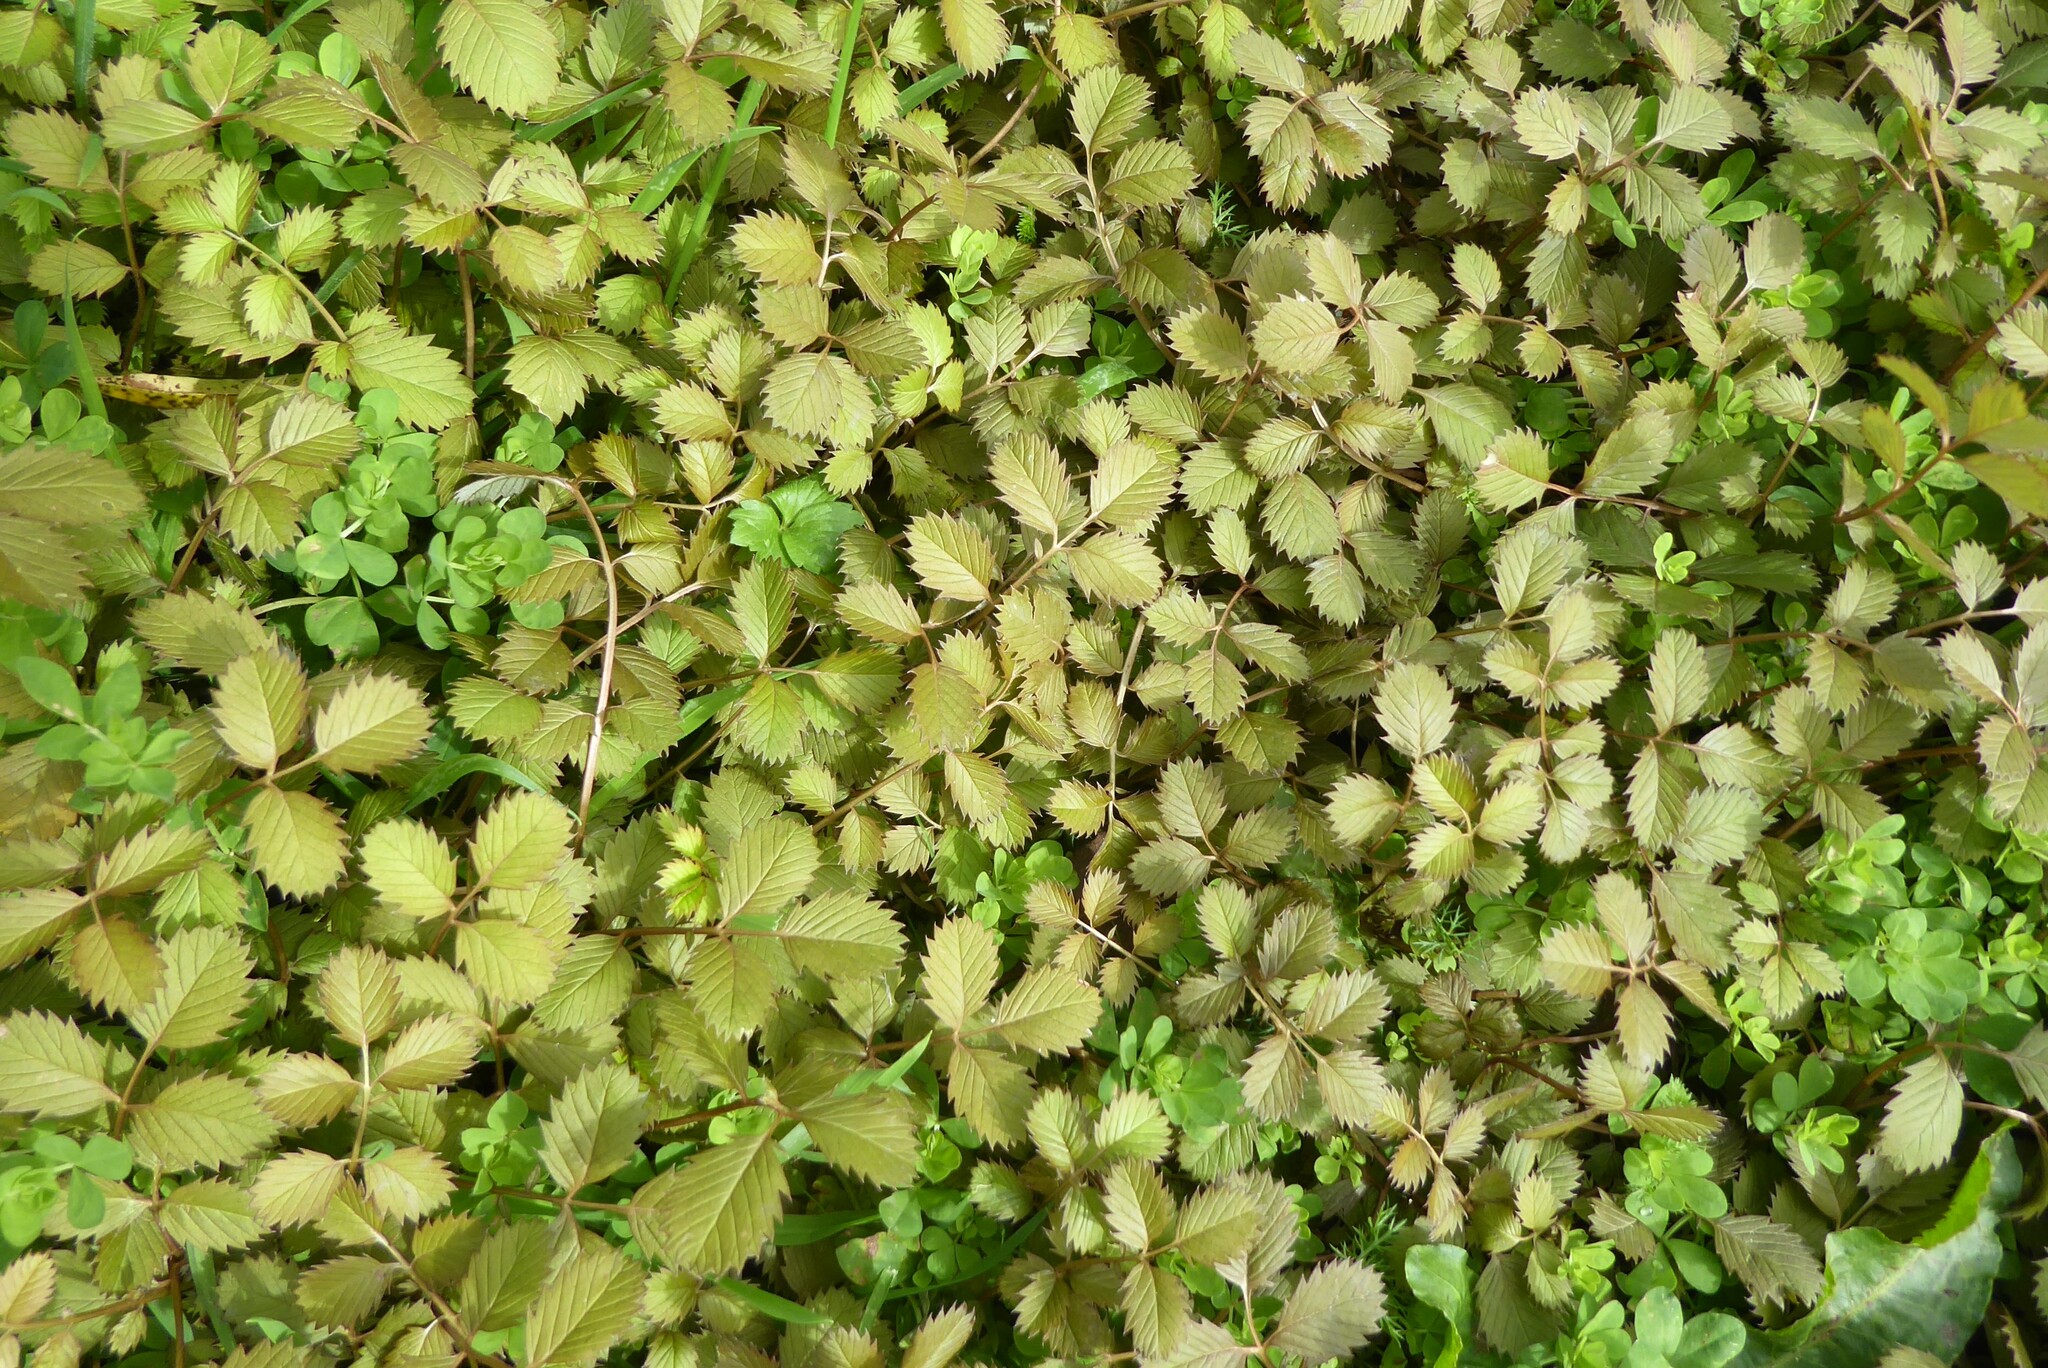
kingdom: Plantae
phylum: Tracheophyta
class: Magnoliopsida
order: Rosales
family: Rosaceae
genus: Argentina
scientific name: Argentina anserinoides
